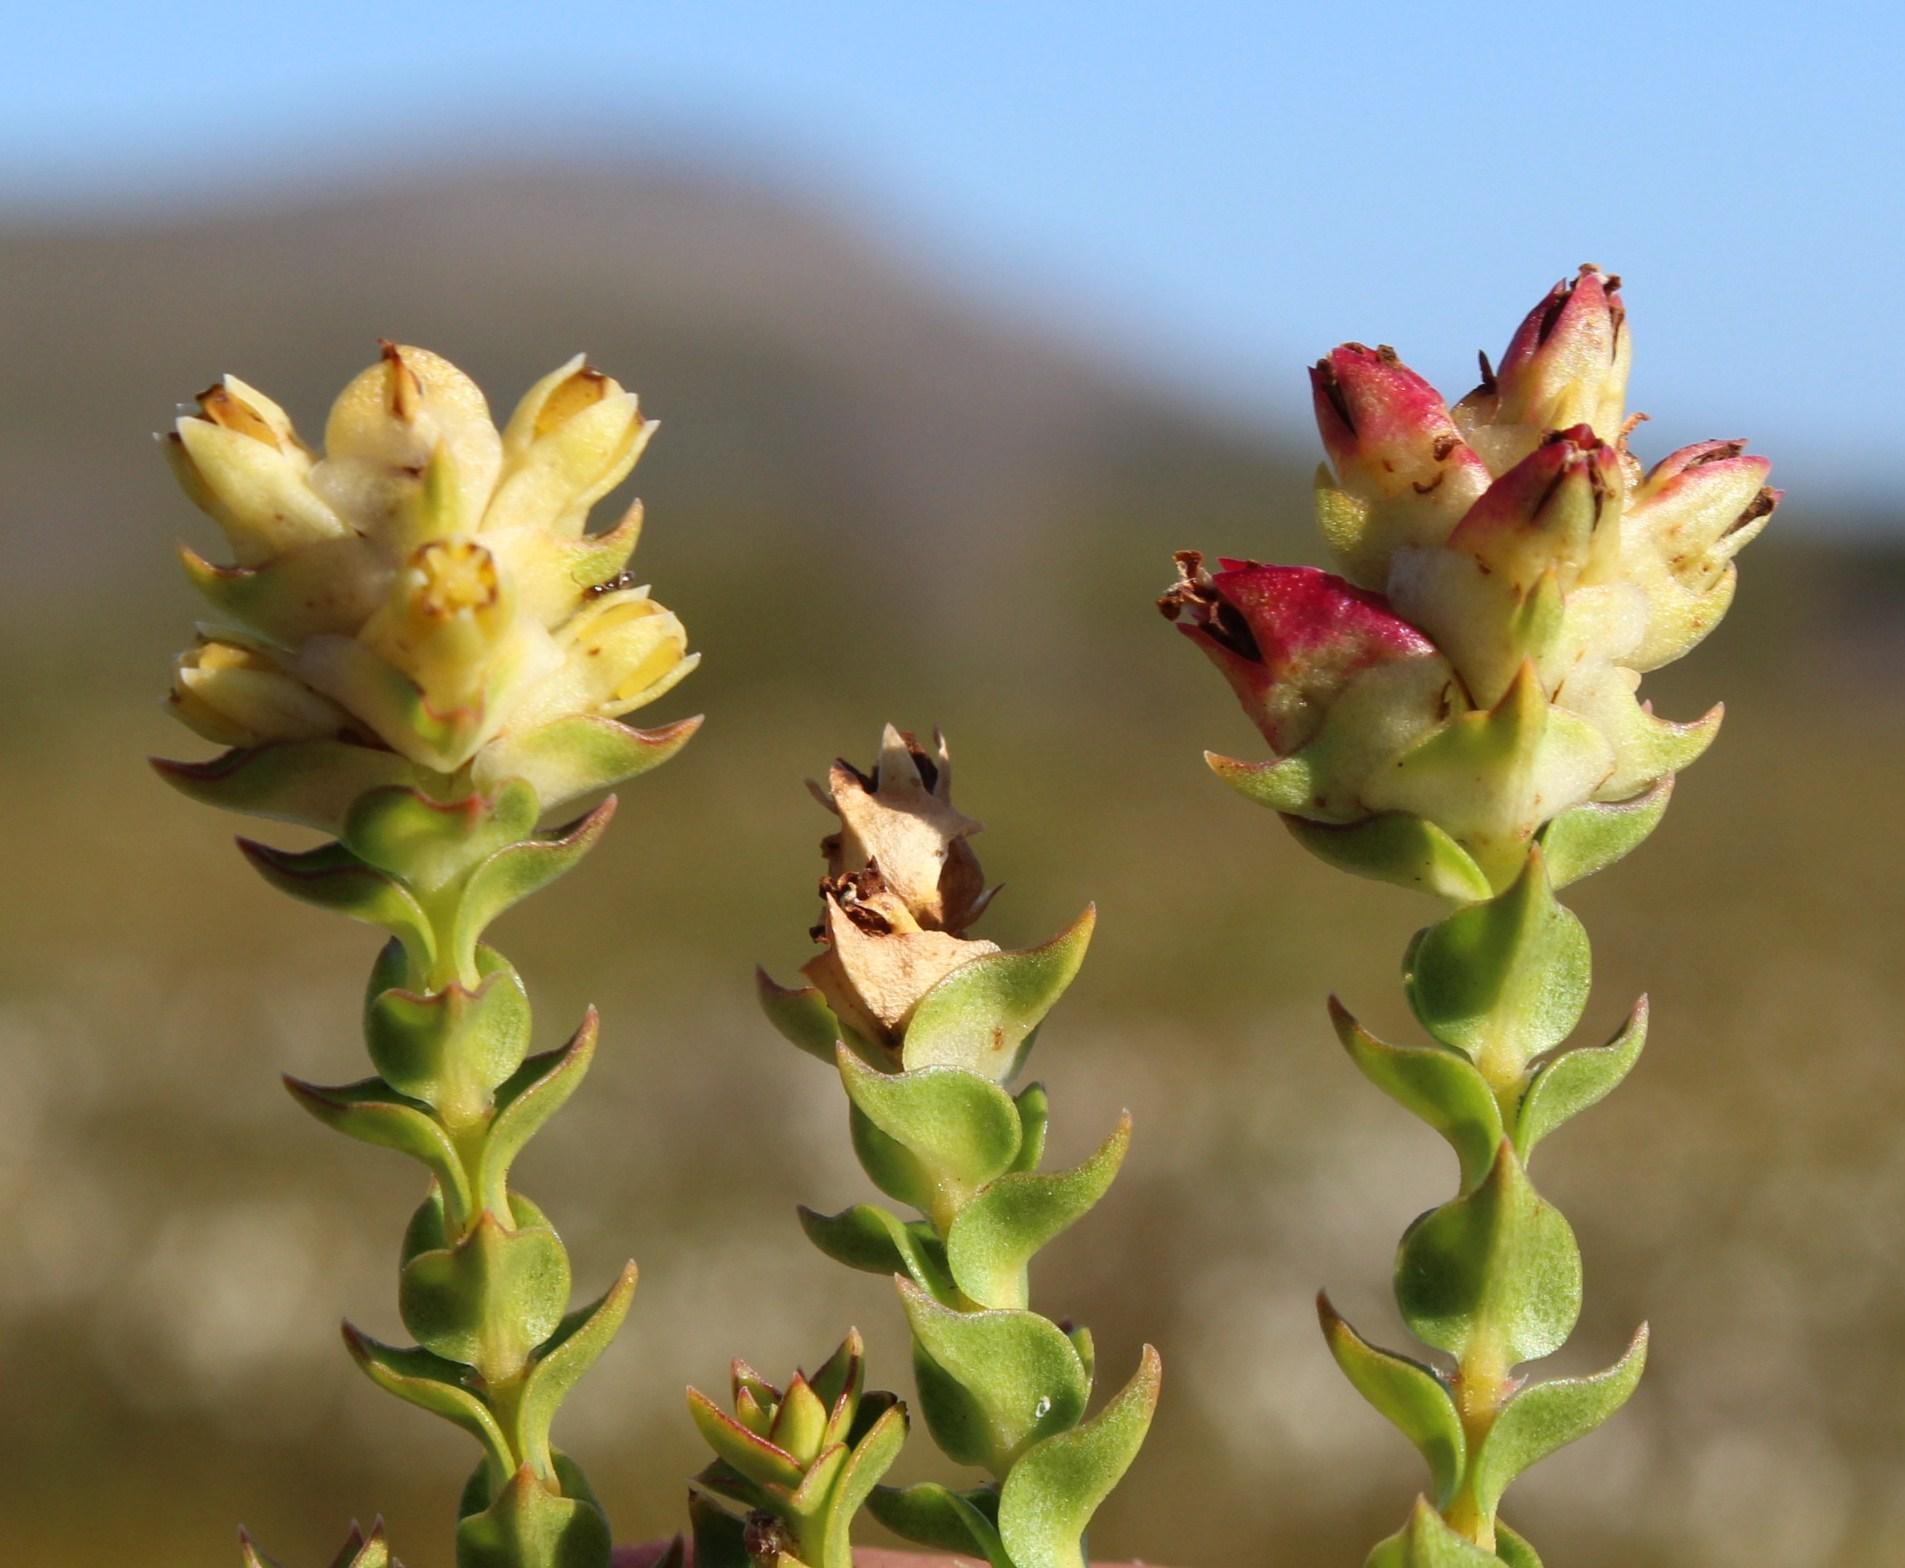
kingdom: Plantae
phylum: Tracheophyta
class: Magnoliopsida
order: Myrtales
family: Penaeaceae
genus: Penaea
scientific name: Penaea mucronata
